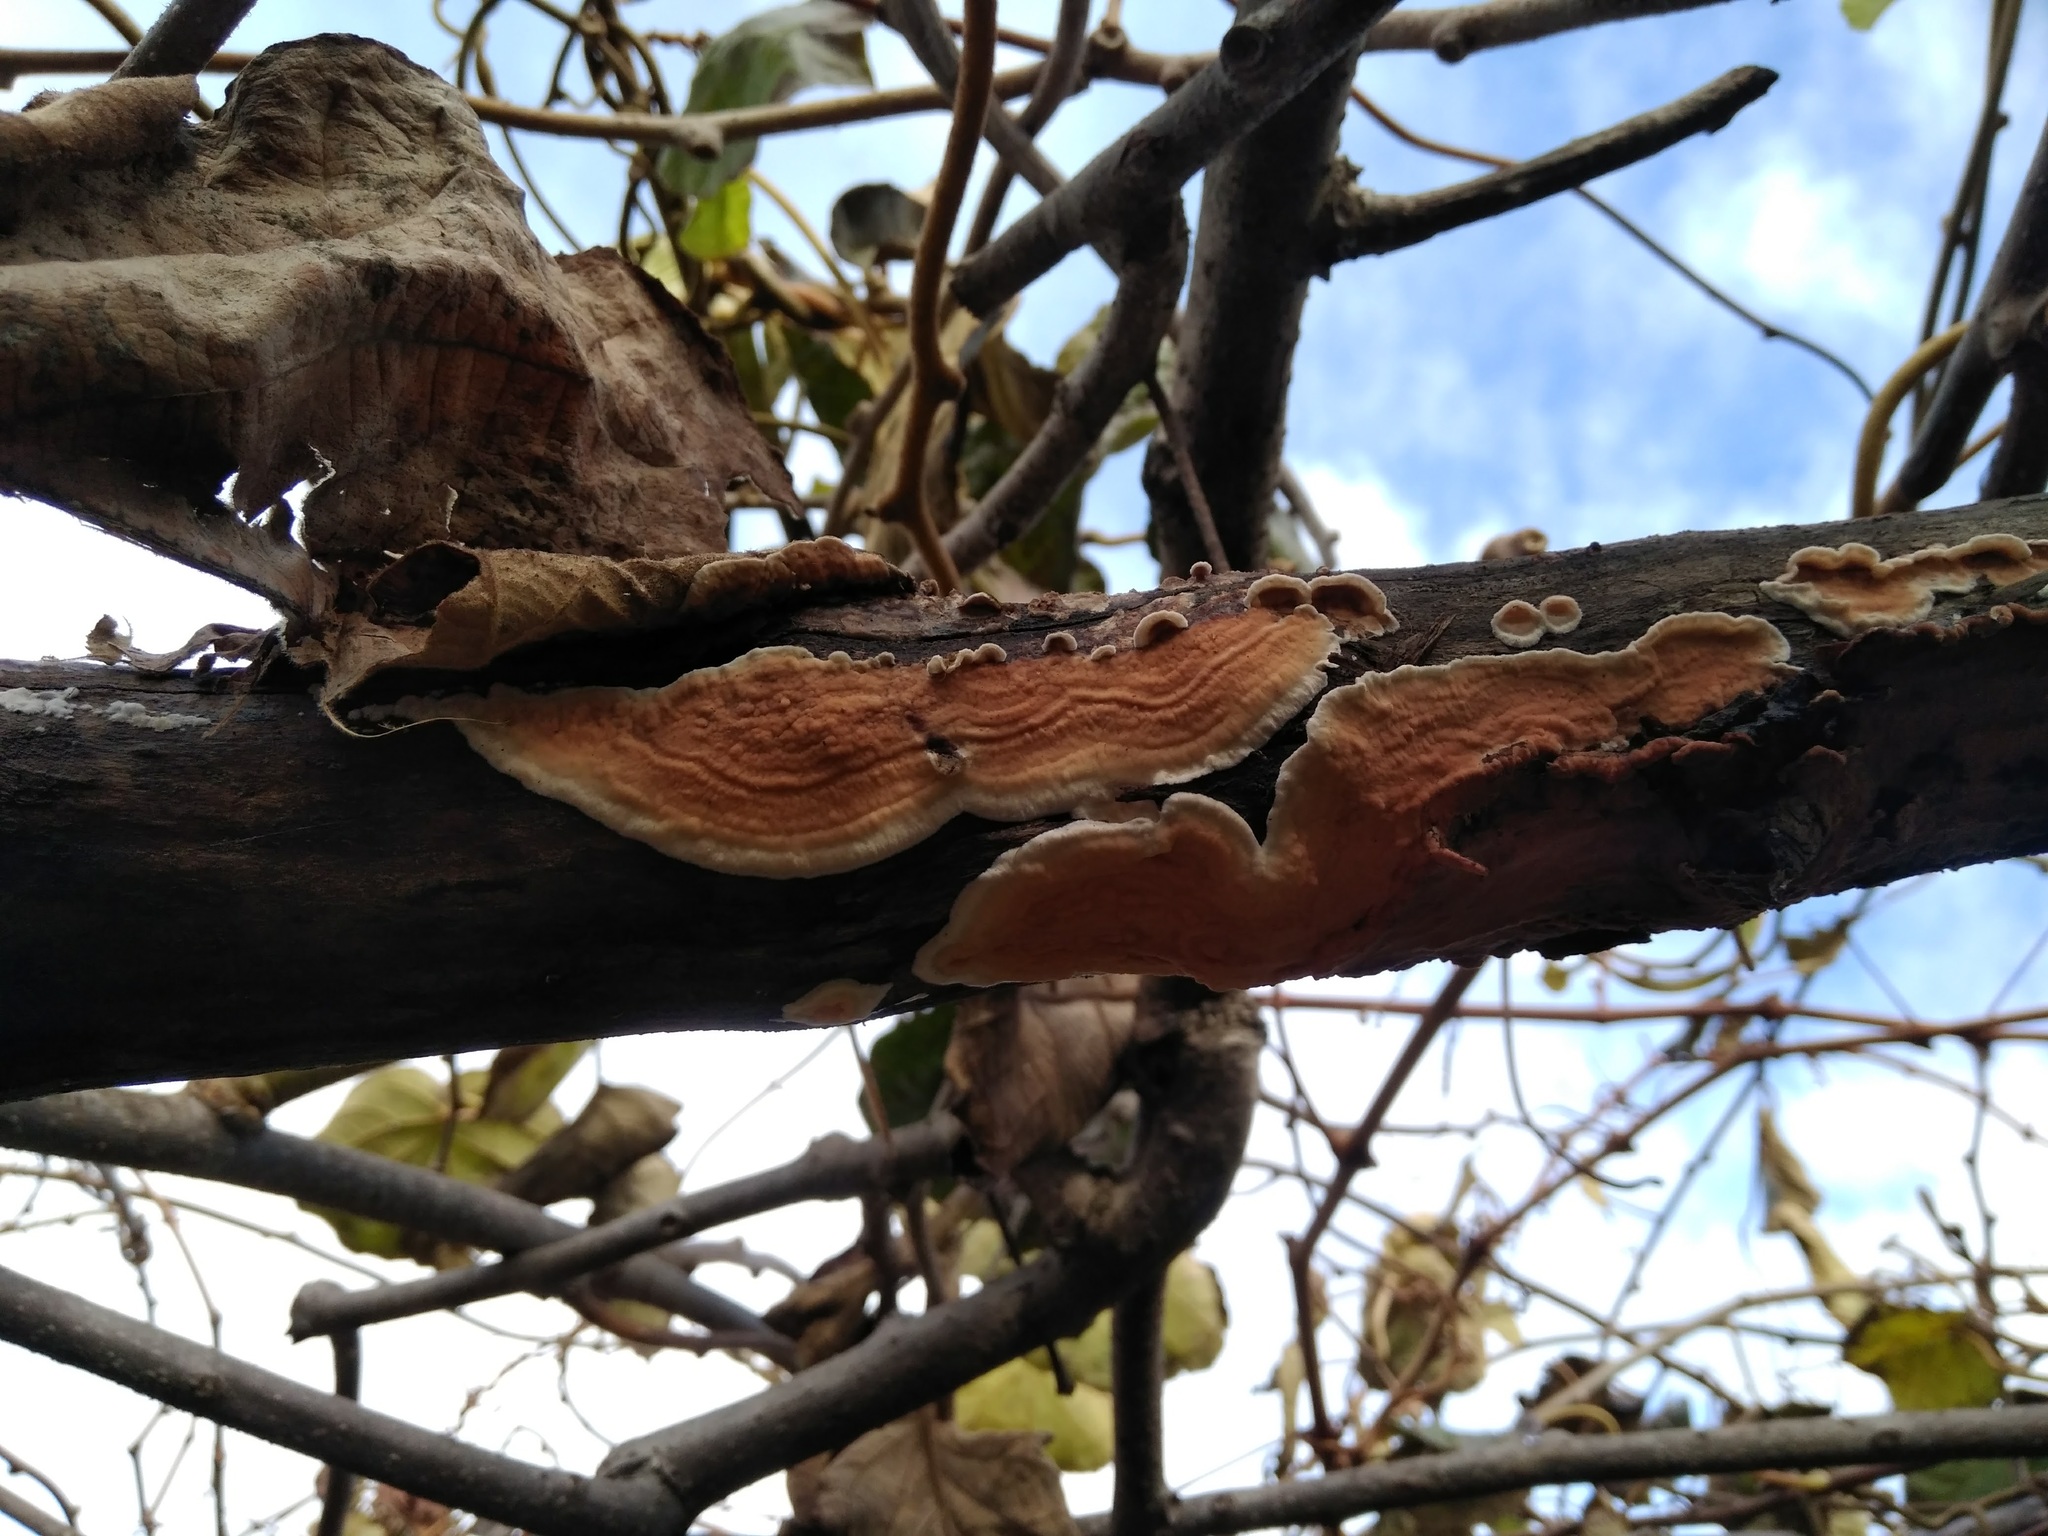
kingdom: Fungi
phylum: Basidiomycota
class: Agaricomycetes
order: Polyporales
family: Irpicaceae
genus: Byssomerulius
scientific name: Byssomerulius corium
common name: Netted crust
